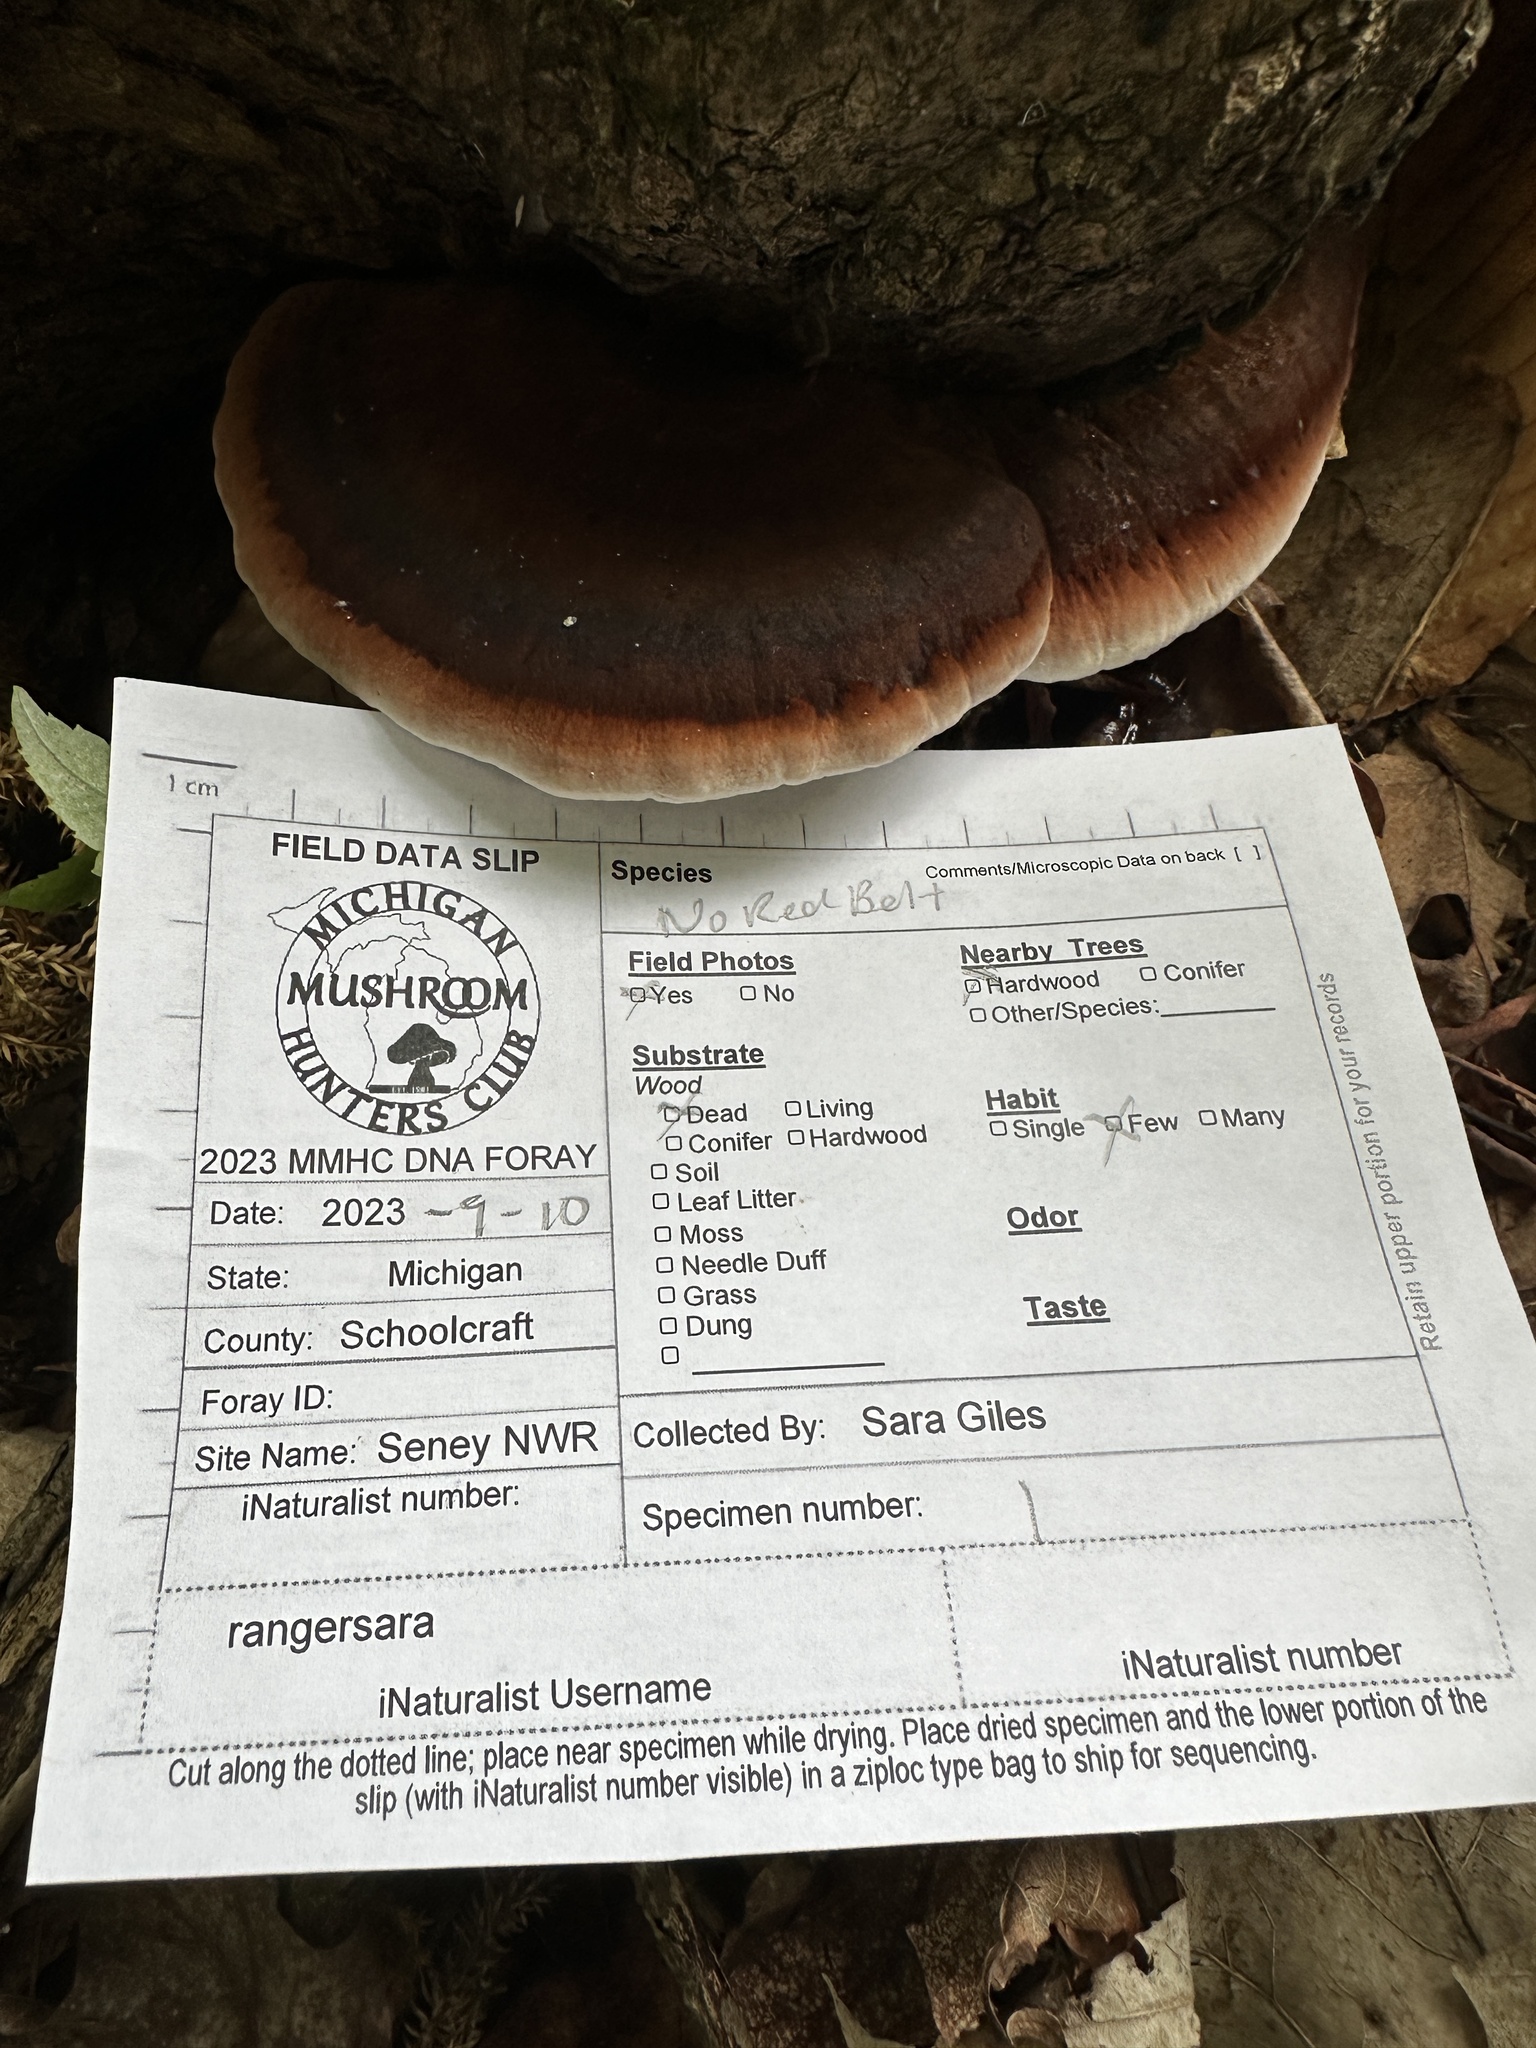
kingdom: Fungi
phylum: Basidiomycota
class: Agaricomycetes
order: Polyporales
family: Ischnodermataceae
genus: Ischnoderma
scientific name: Ischnoderma resinosum
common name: Resinous polypore
